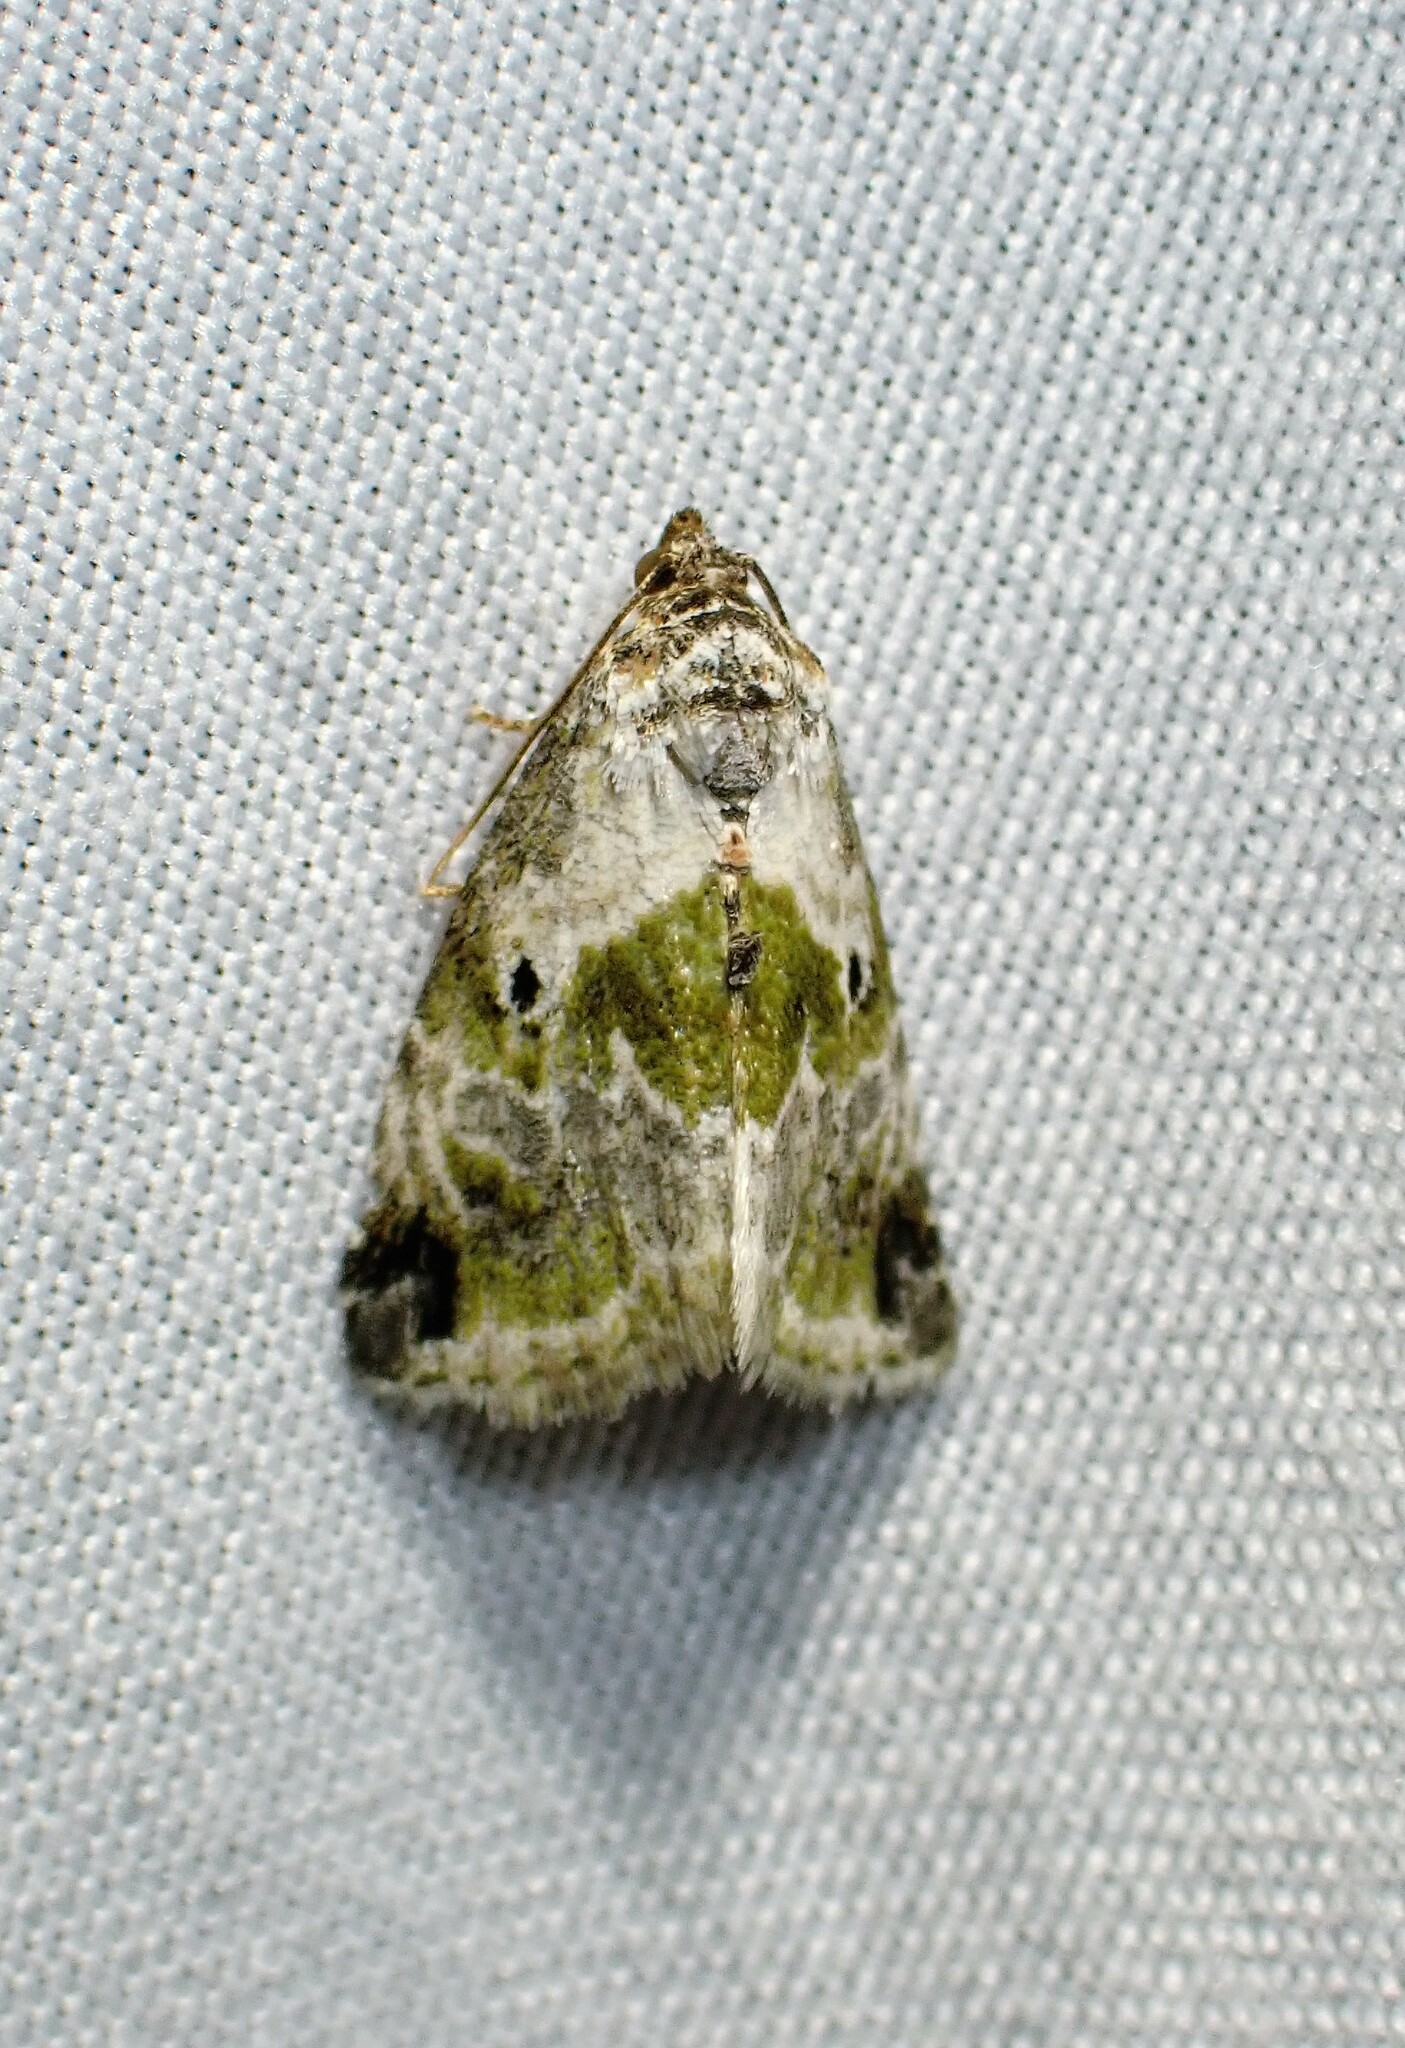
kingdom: Animalia
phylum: Arthropoda
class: Insecta
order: Lepidoptera
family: Noctuidae
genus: Maliattha
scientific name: Maliattha synochitis
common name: Black-dotted glyph
